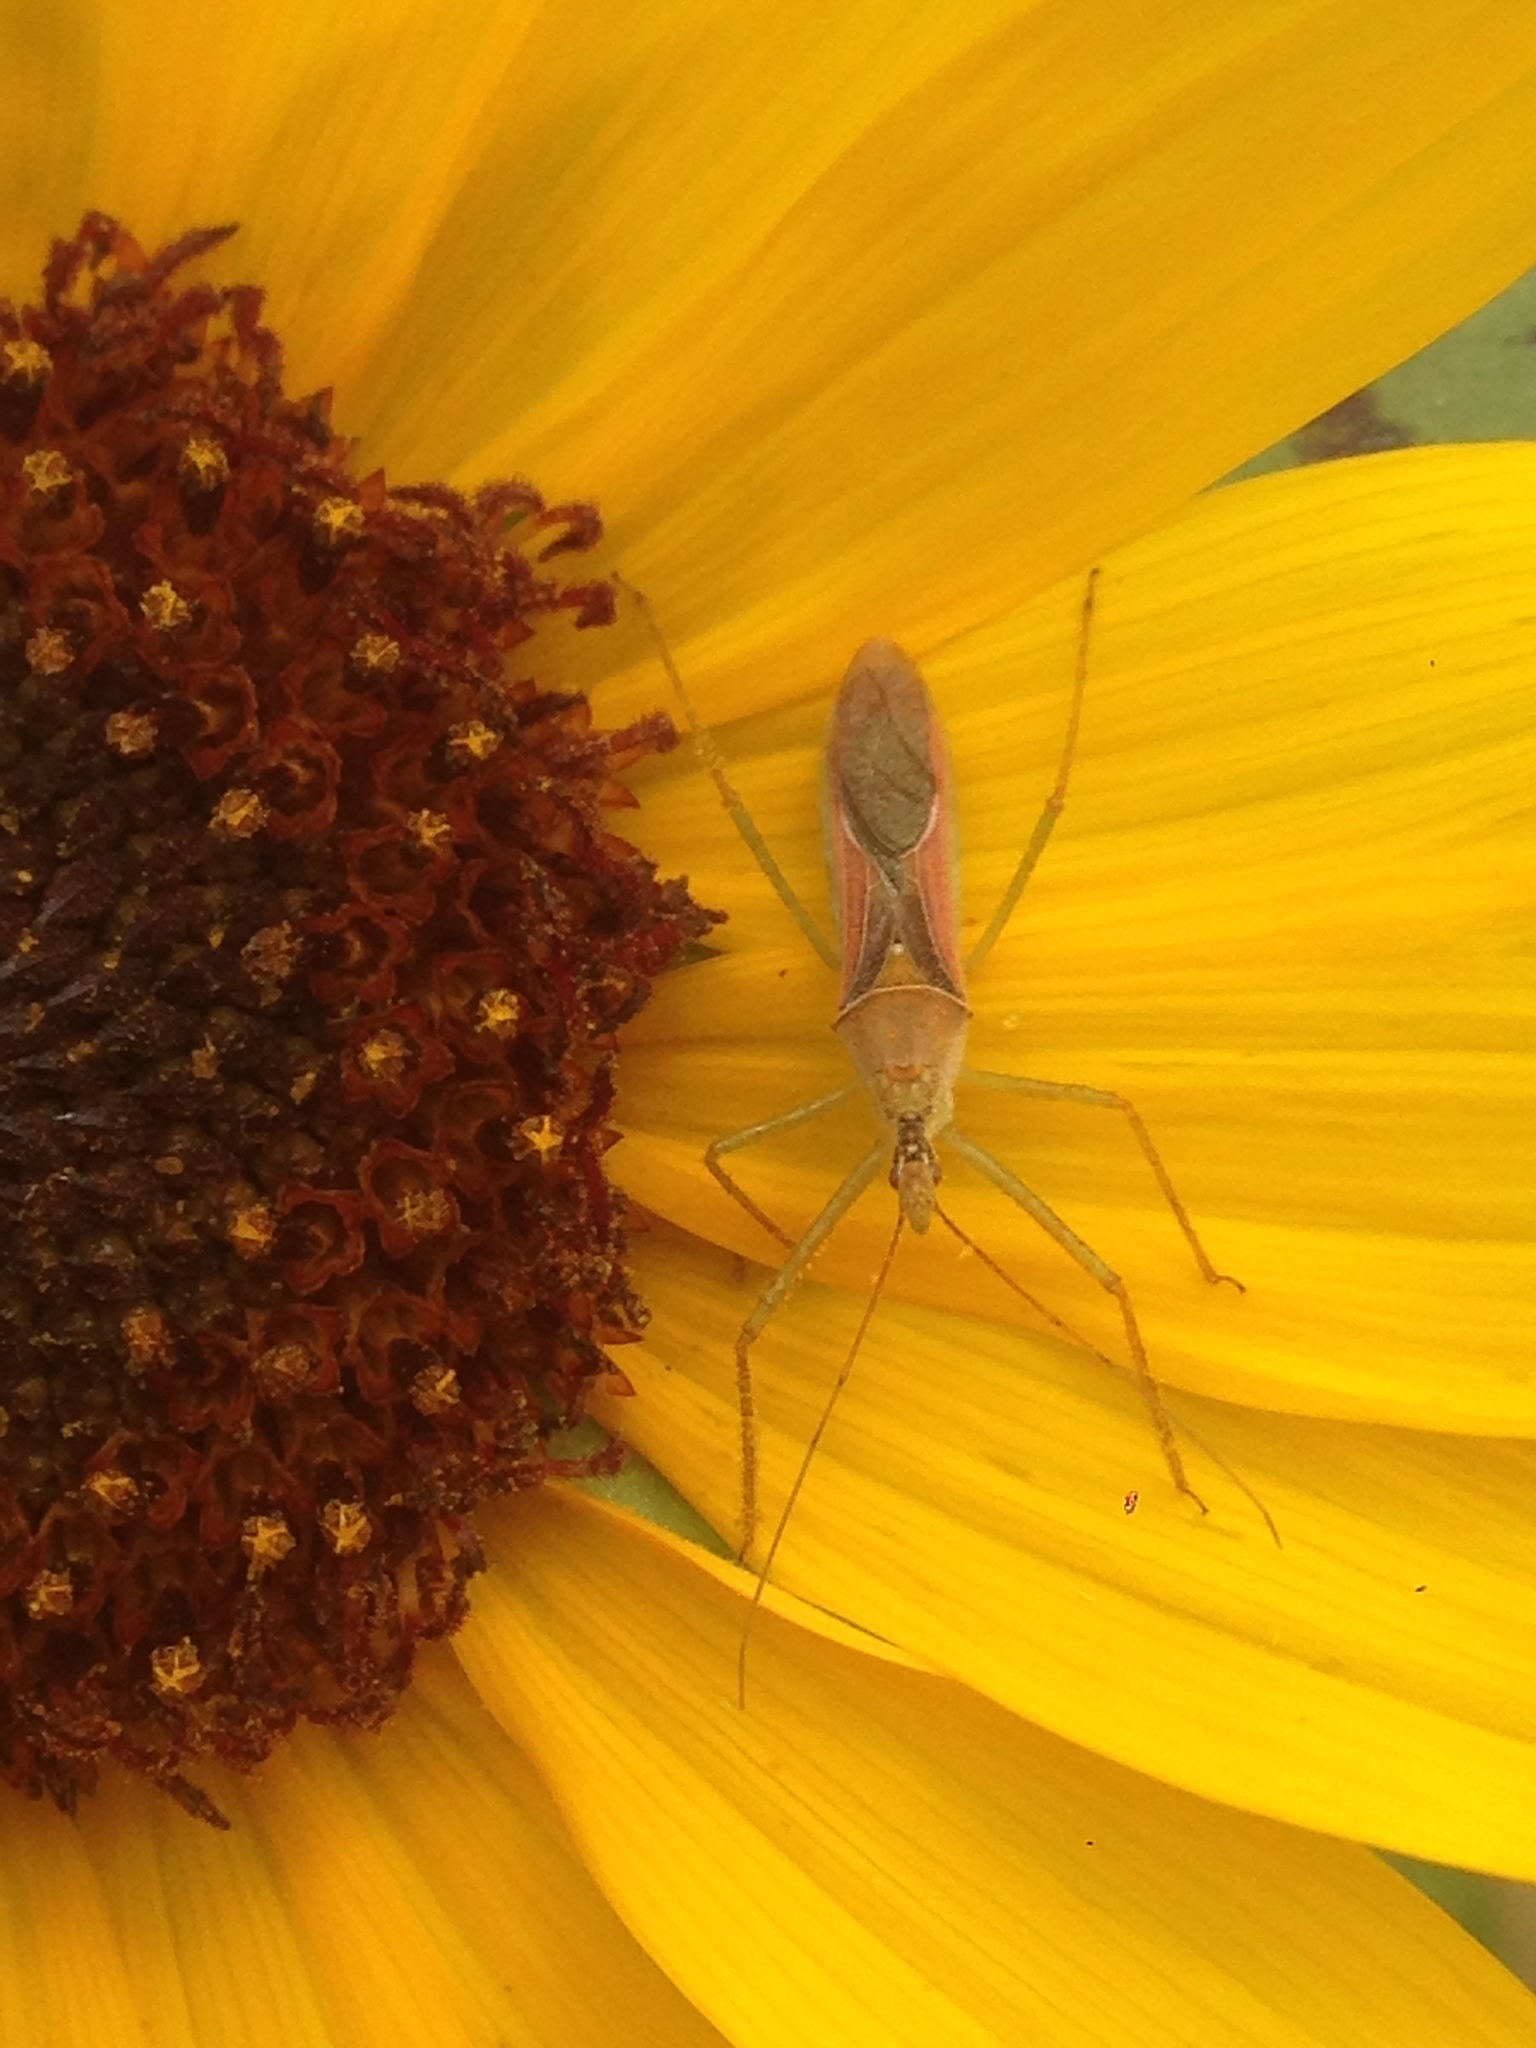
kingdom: Animalia
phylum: Arthropoda
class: Insecta
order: Hemiptera
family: Reduviidae
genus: Zelus
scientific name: Zelus renardii
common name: Assassin bug
